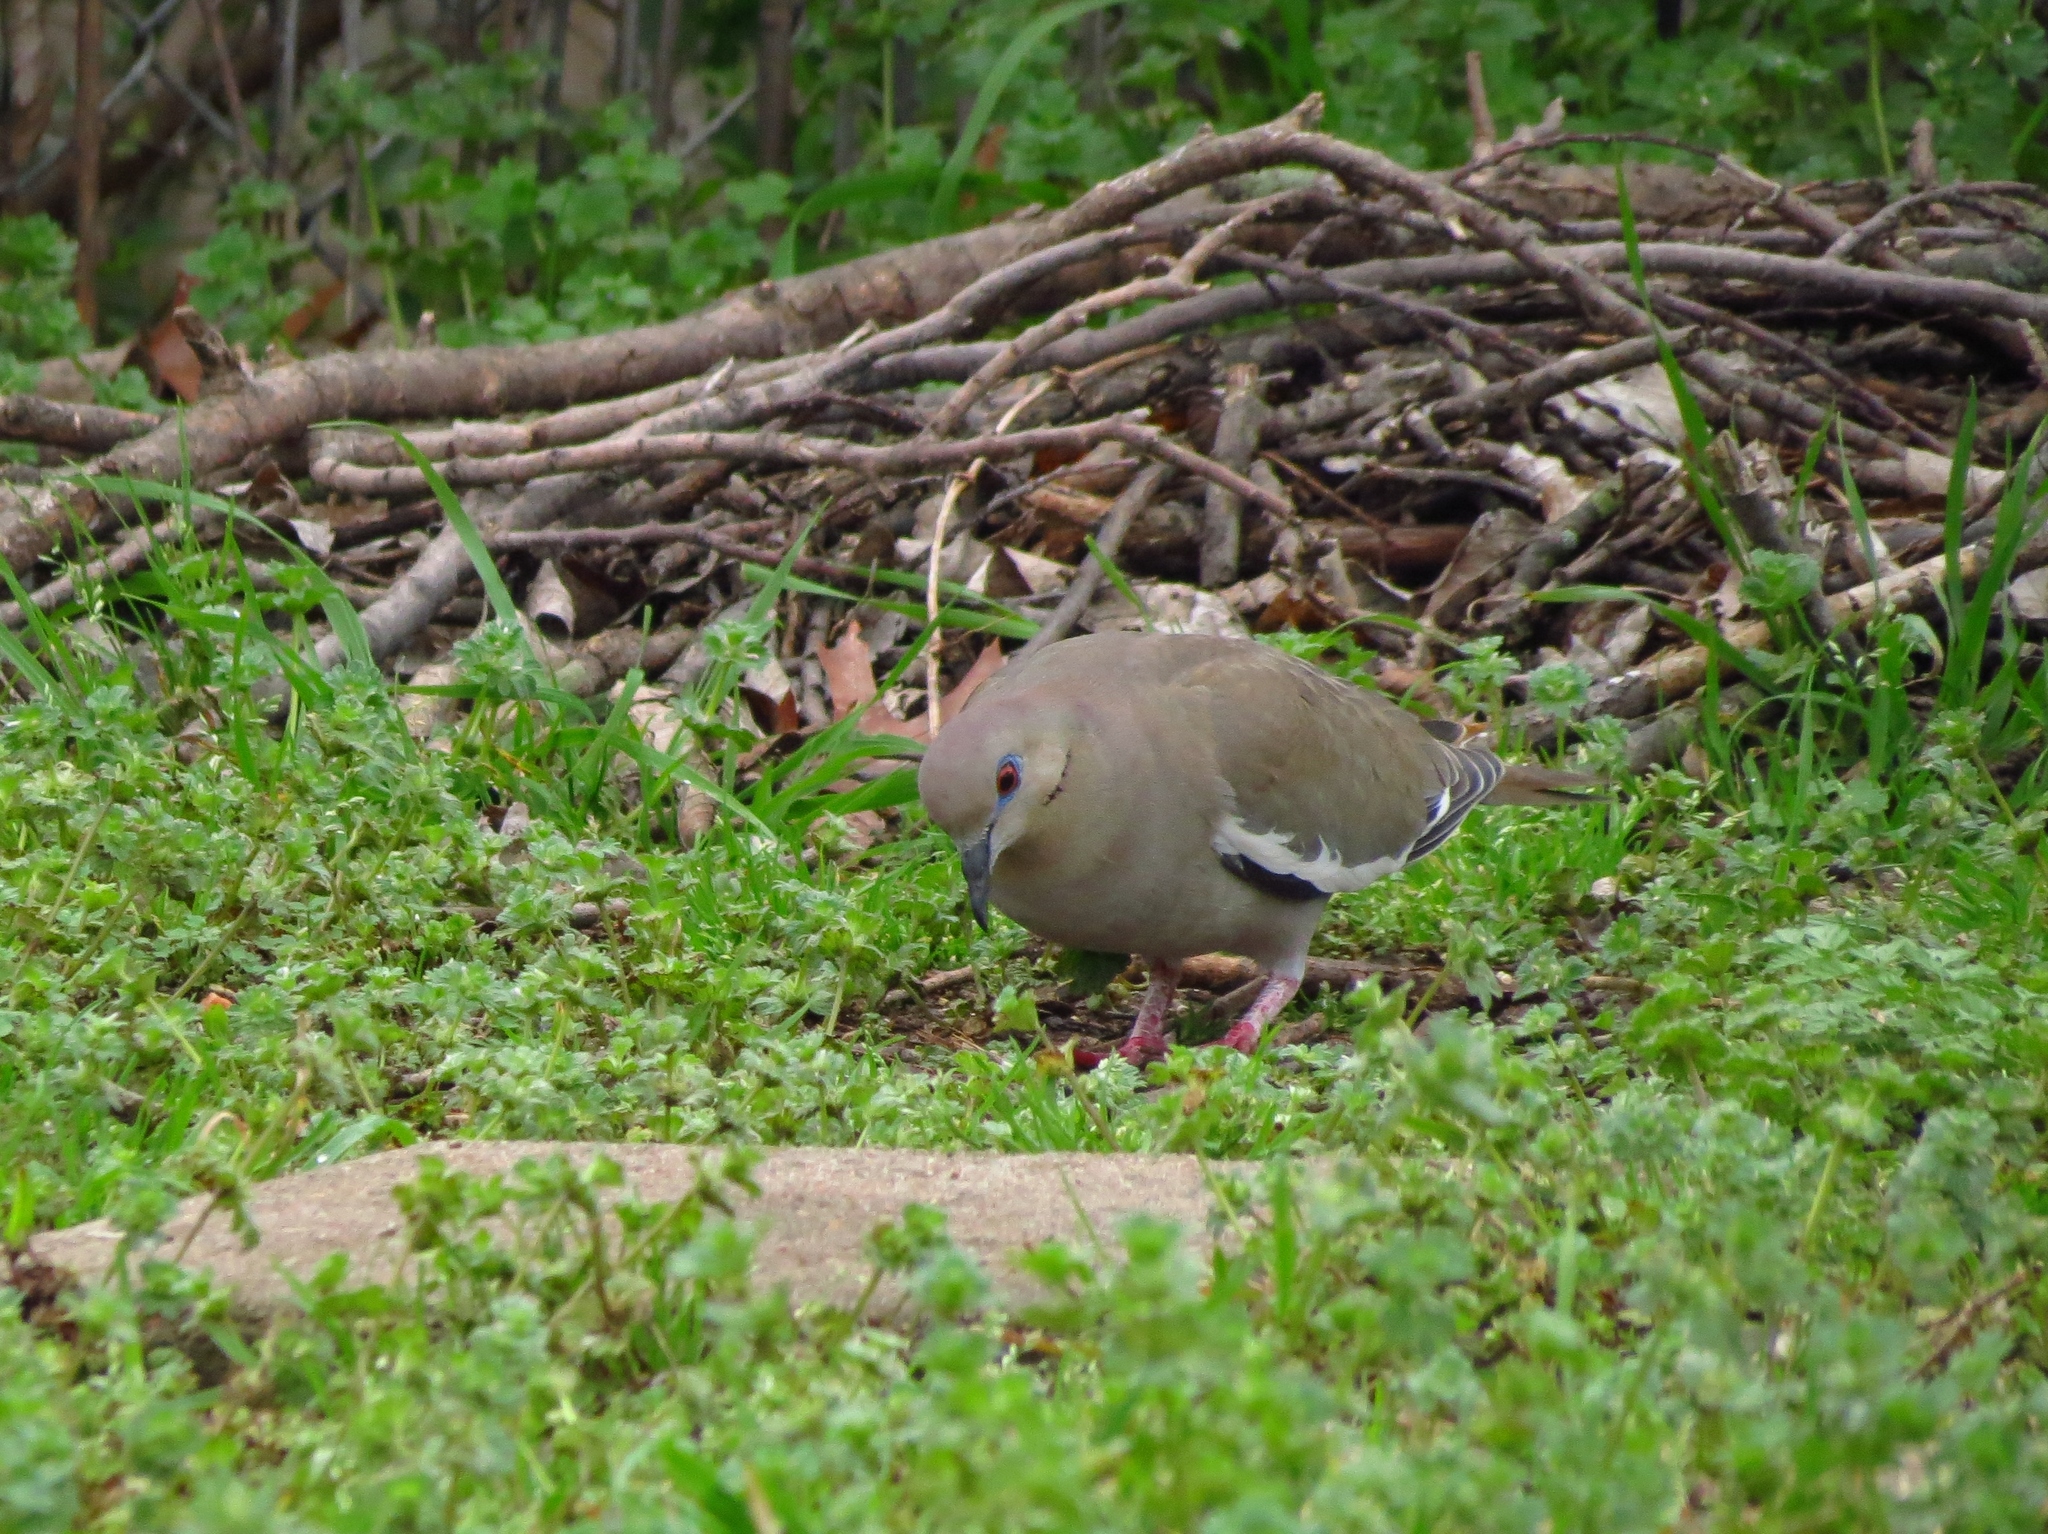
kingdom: Animalia
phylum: Chordata
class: Aves
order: Columbiformes
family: Columbidae
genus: Zenaida
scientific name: Zenaida asiatica
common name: White-winged dove
